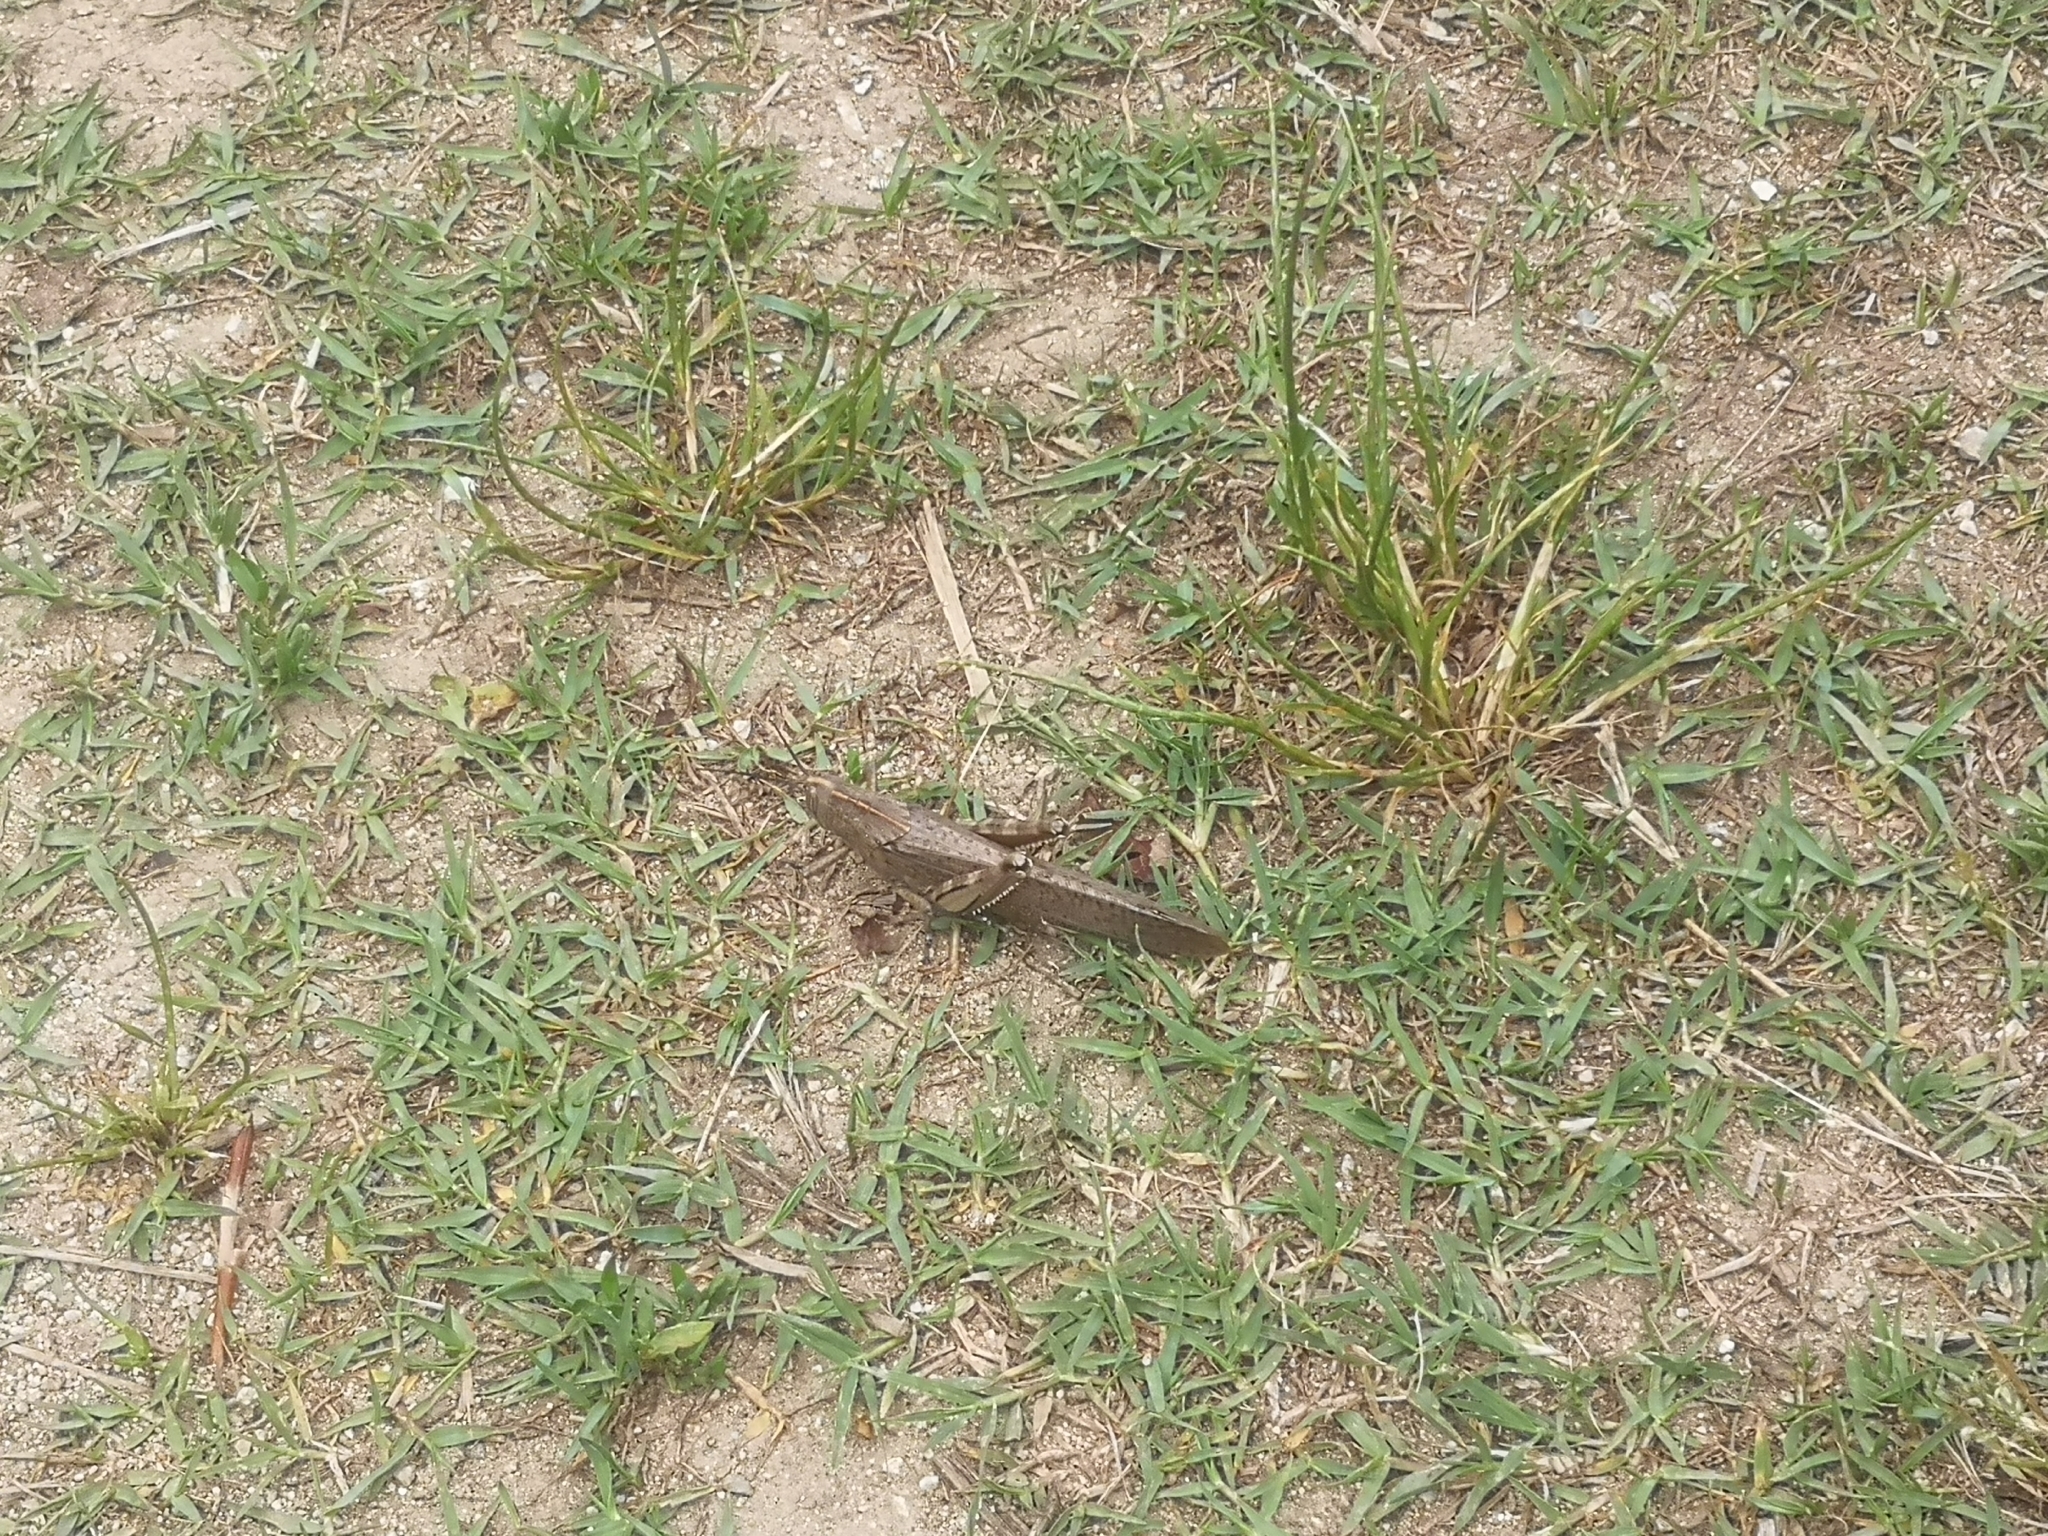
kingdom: Animalia
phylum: Arthropoda
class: Insecta
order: Orthoptera
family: Acrididae
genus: Anacridium
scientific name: Anacridium aegyptium
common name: Egyptian grasshopper
